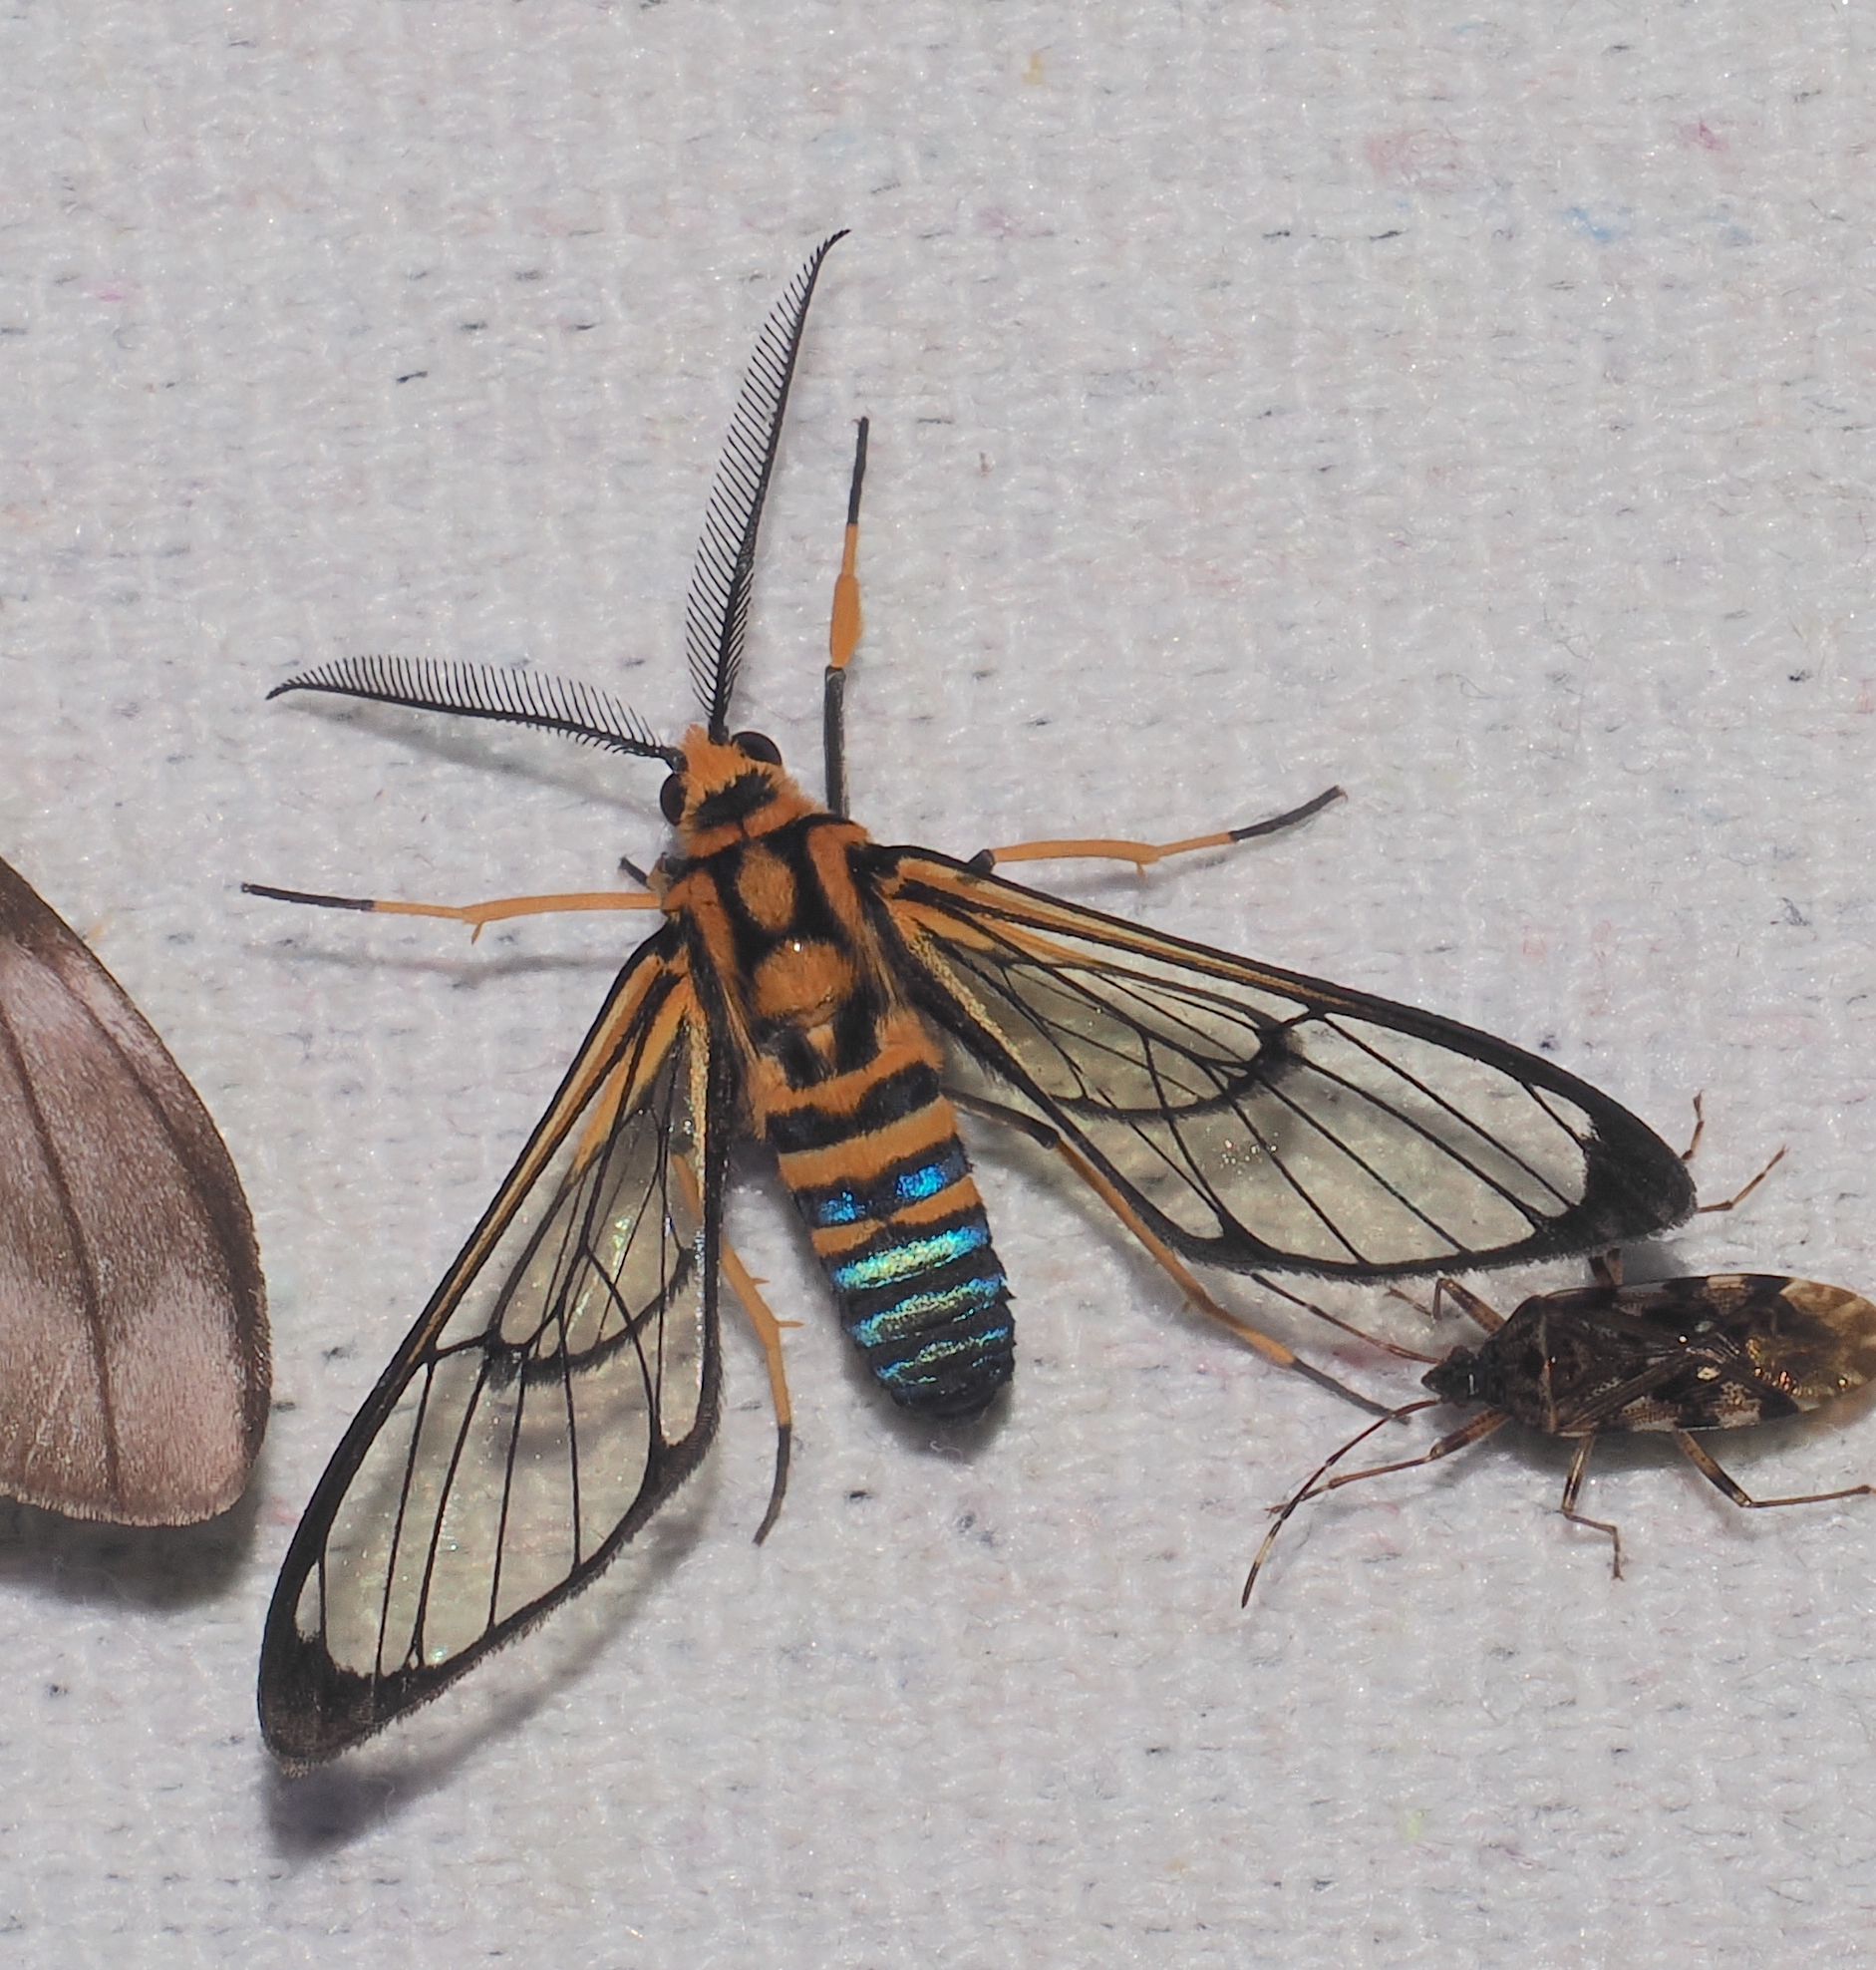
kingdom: Animalia
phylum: Arthropoda
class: Insecta
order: Lepidoptera
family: Erebidae
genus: Mesothen
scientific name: Mesothen nomia
